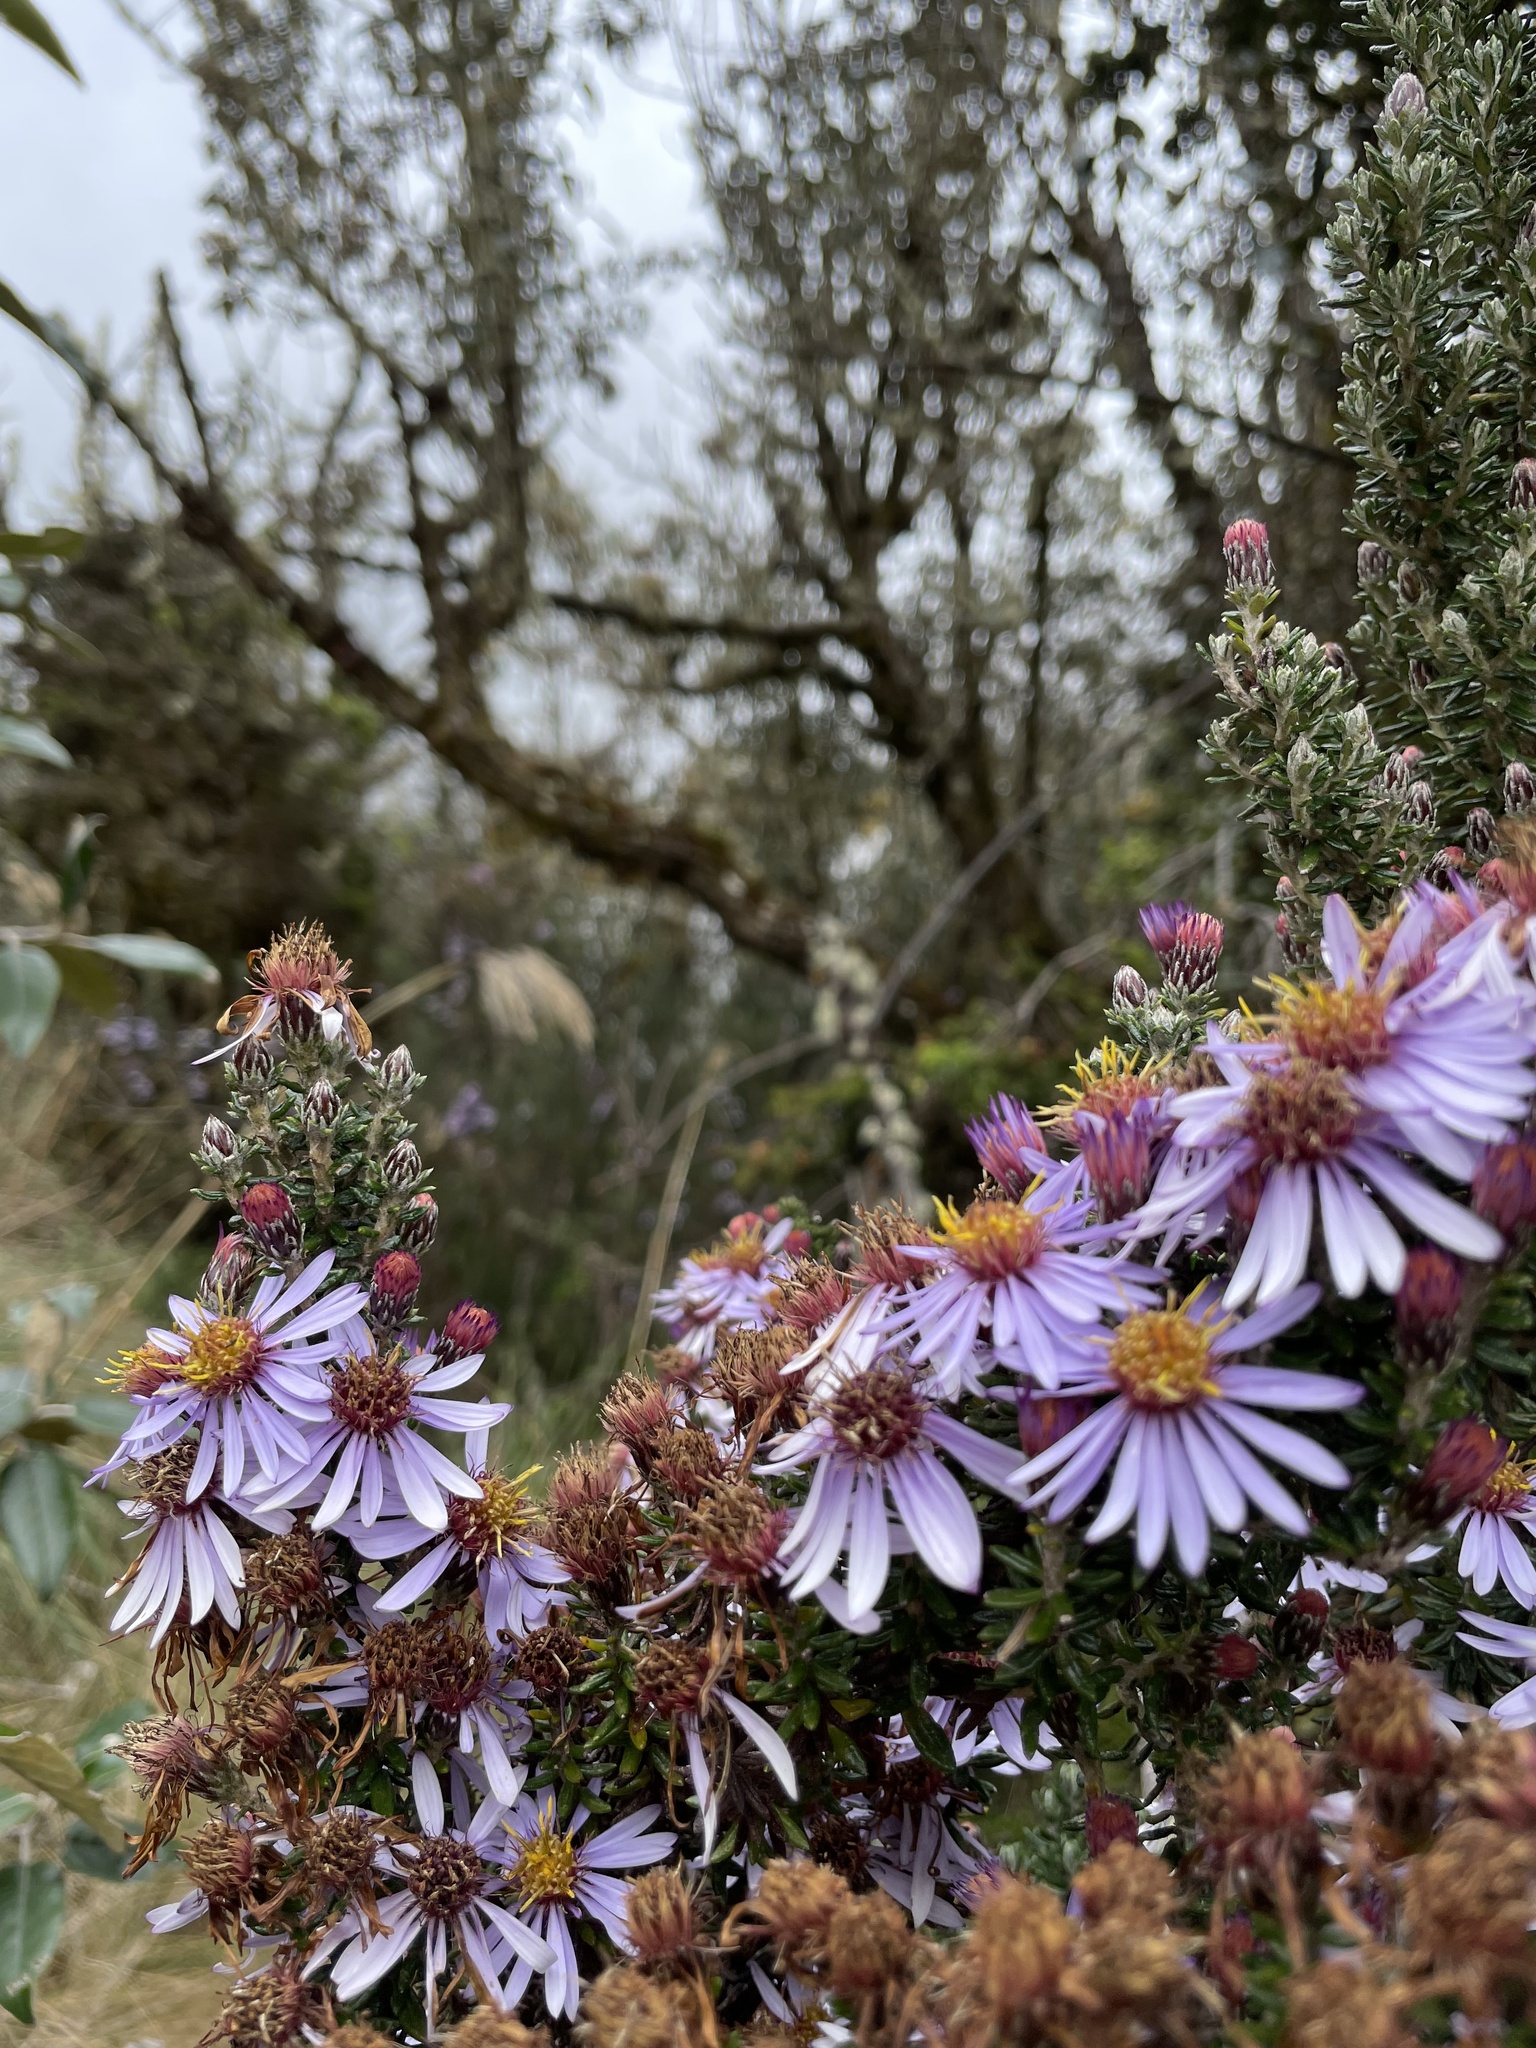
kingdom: Plantae
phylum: Tracheophyta
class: Magnoliopsida
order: Asterales
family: Asteraceae
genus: Diplostephium
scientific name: Diplostephium hartwegii
